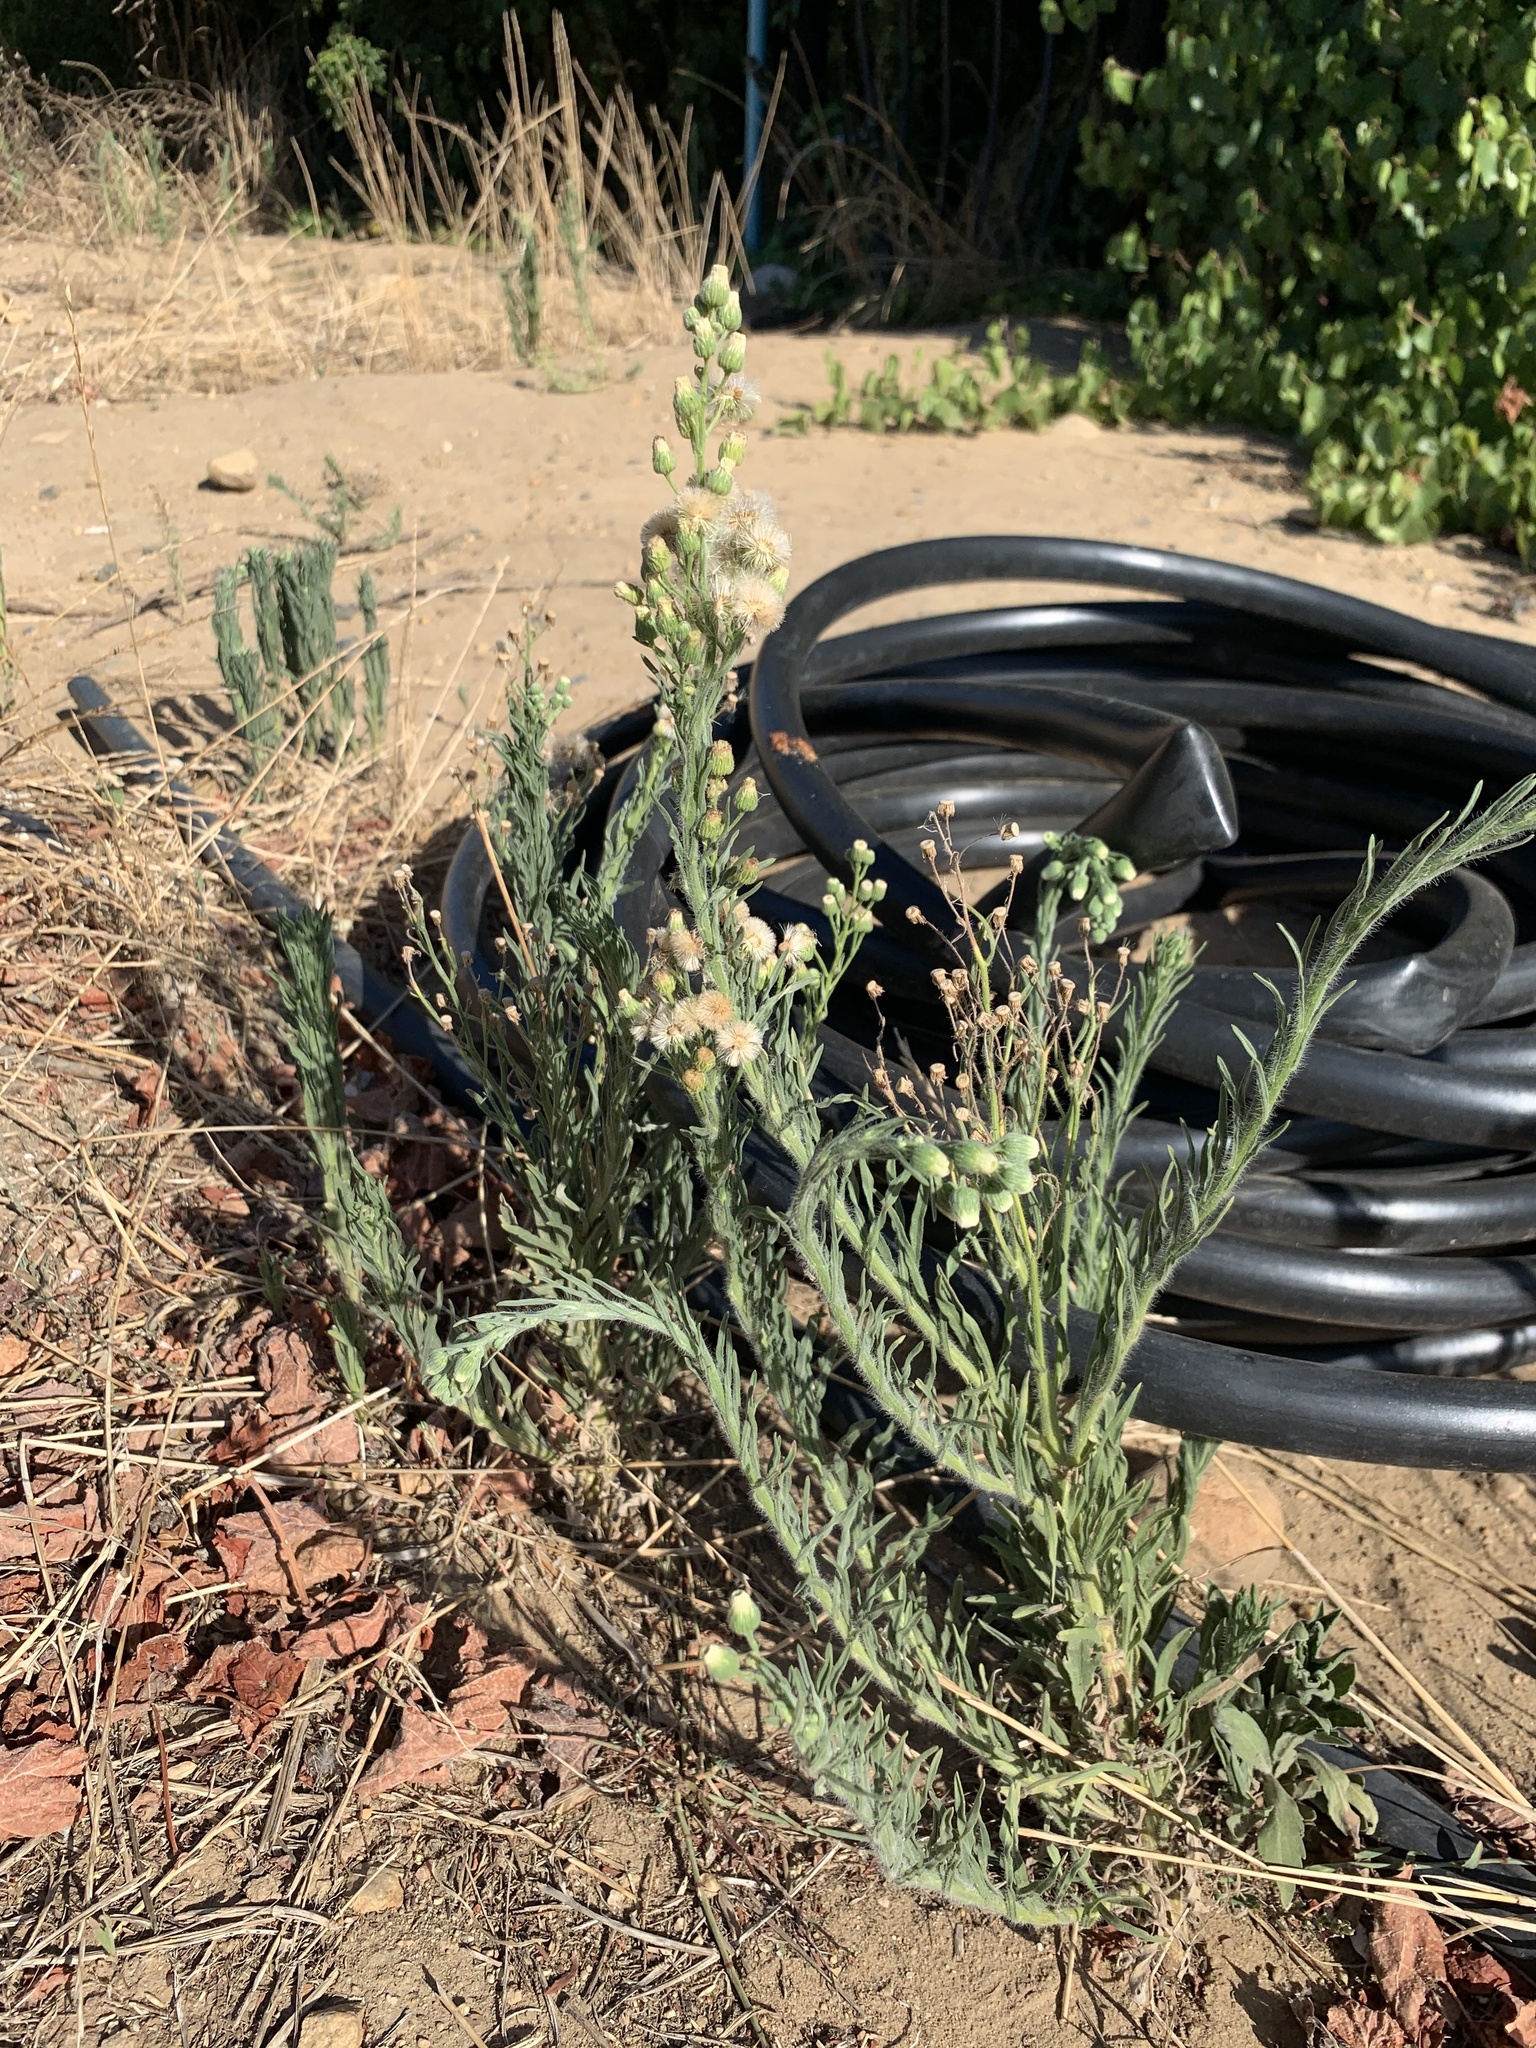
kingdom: Plantae
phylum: Tracheophyta
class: Magnoliopsida
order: Asterales
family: Asteraceae
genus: Erigeron
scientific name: Erigeron bonariensis
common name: Argentine fleabane
